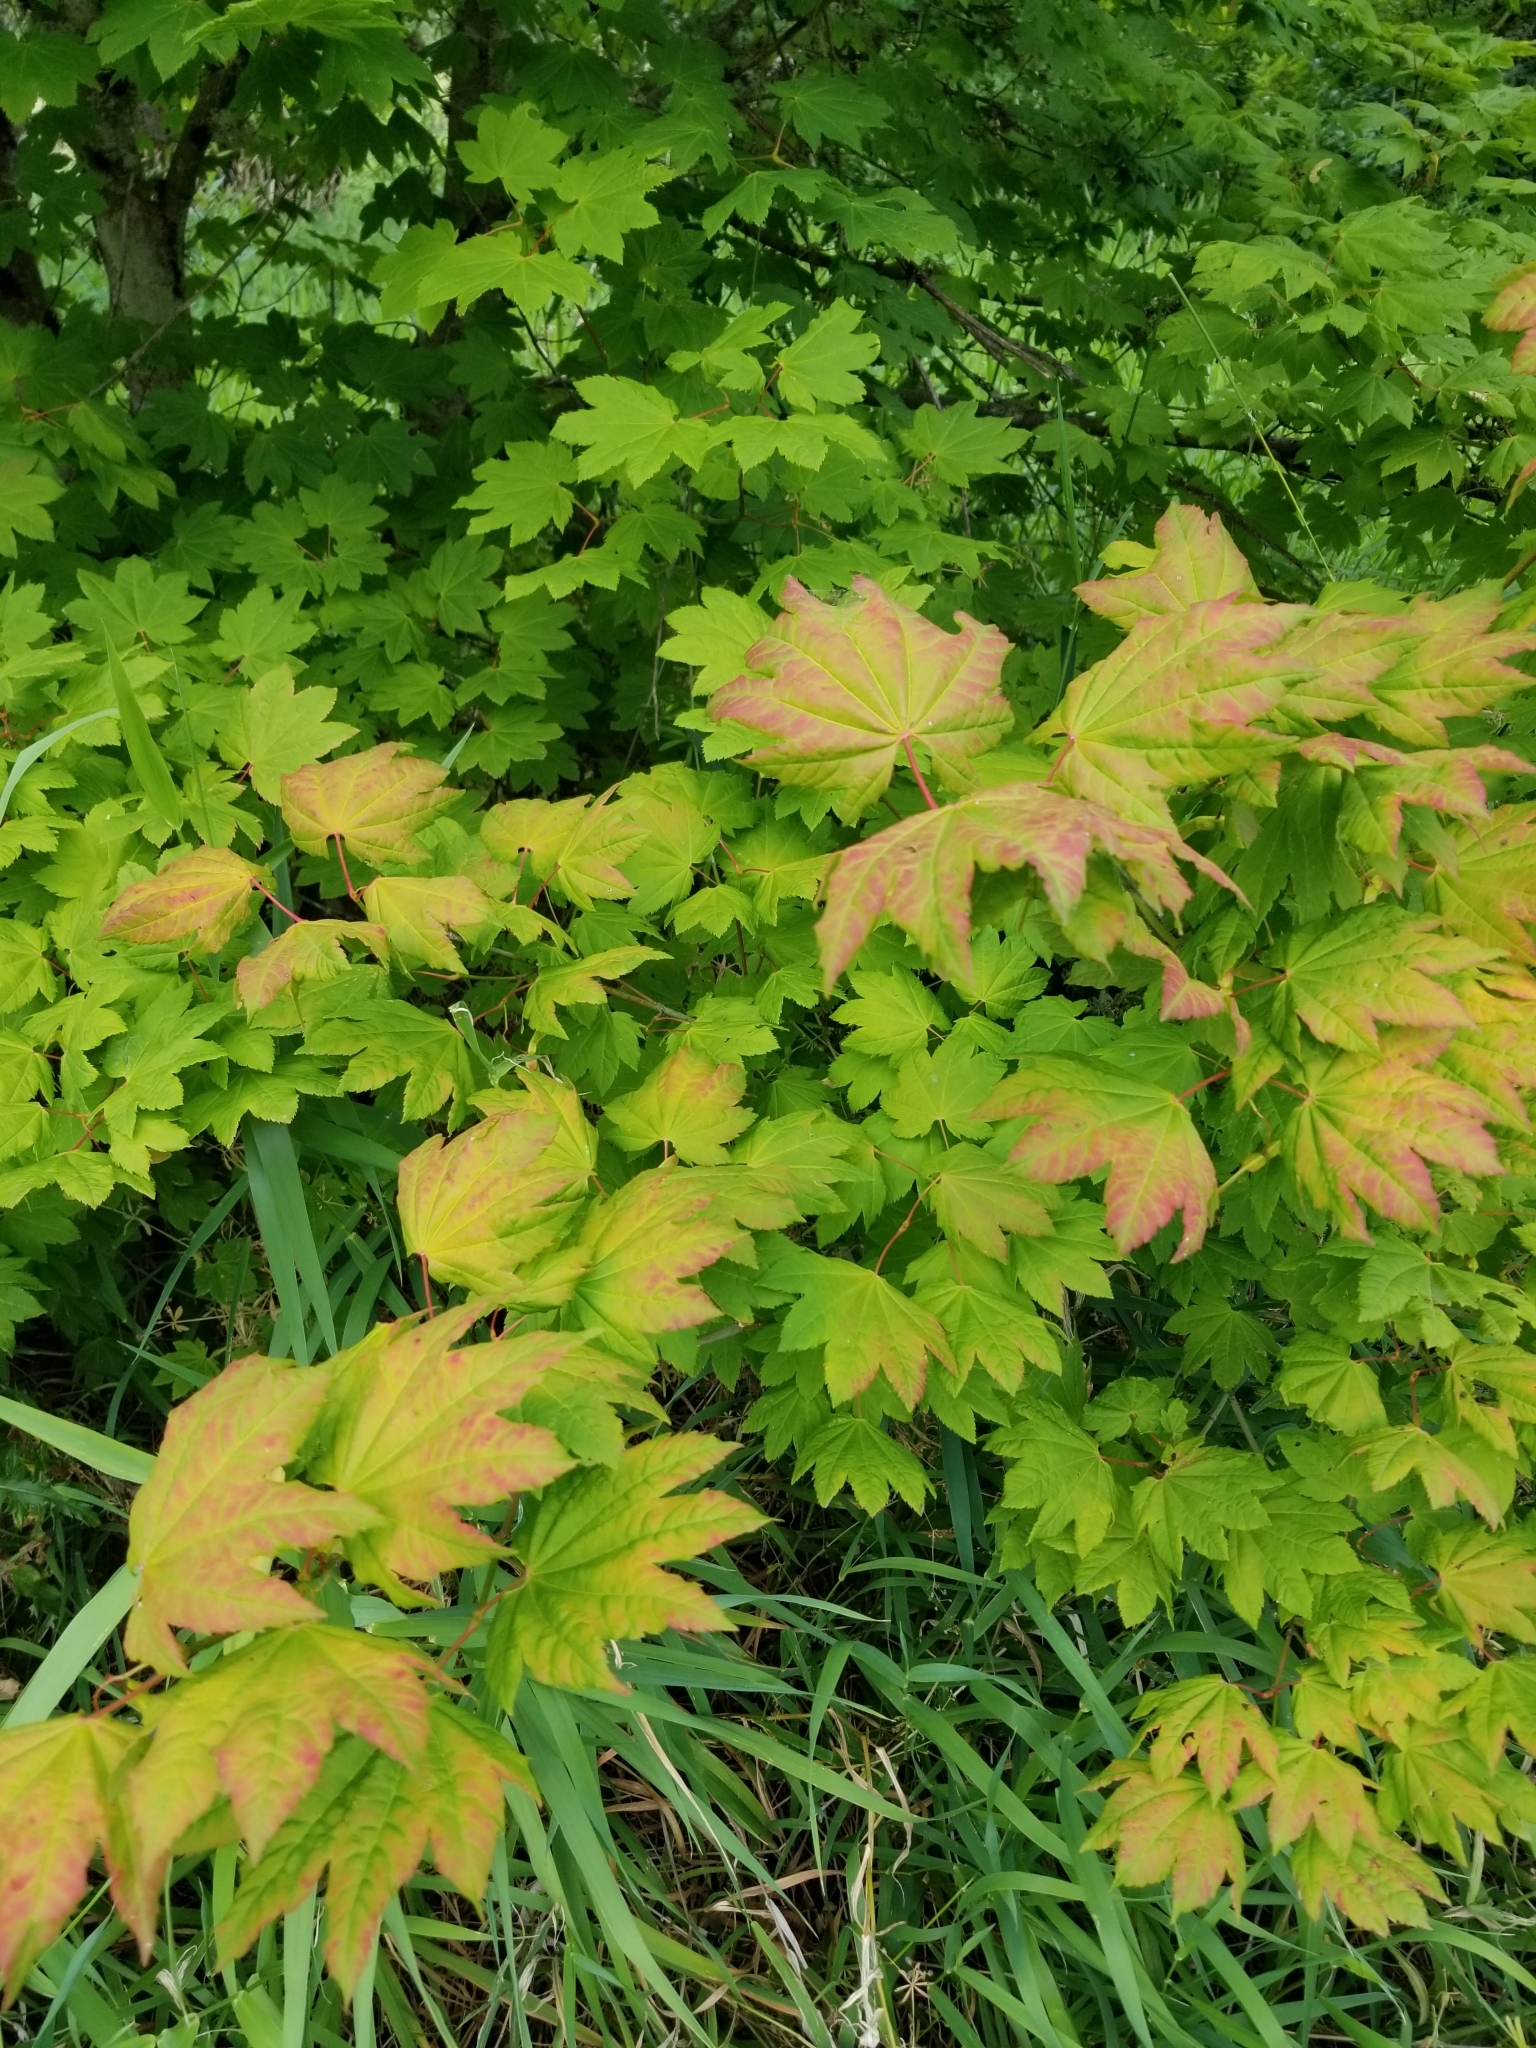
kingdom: Plantae
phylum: Tracheophyta
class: Magnoliopsida
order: Sapindales
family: Sapindaceae
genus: Acer
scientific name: Acer circinatum
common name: Vine maple
